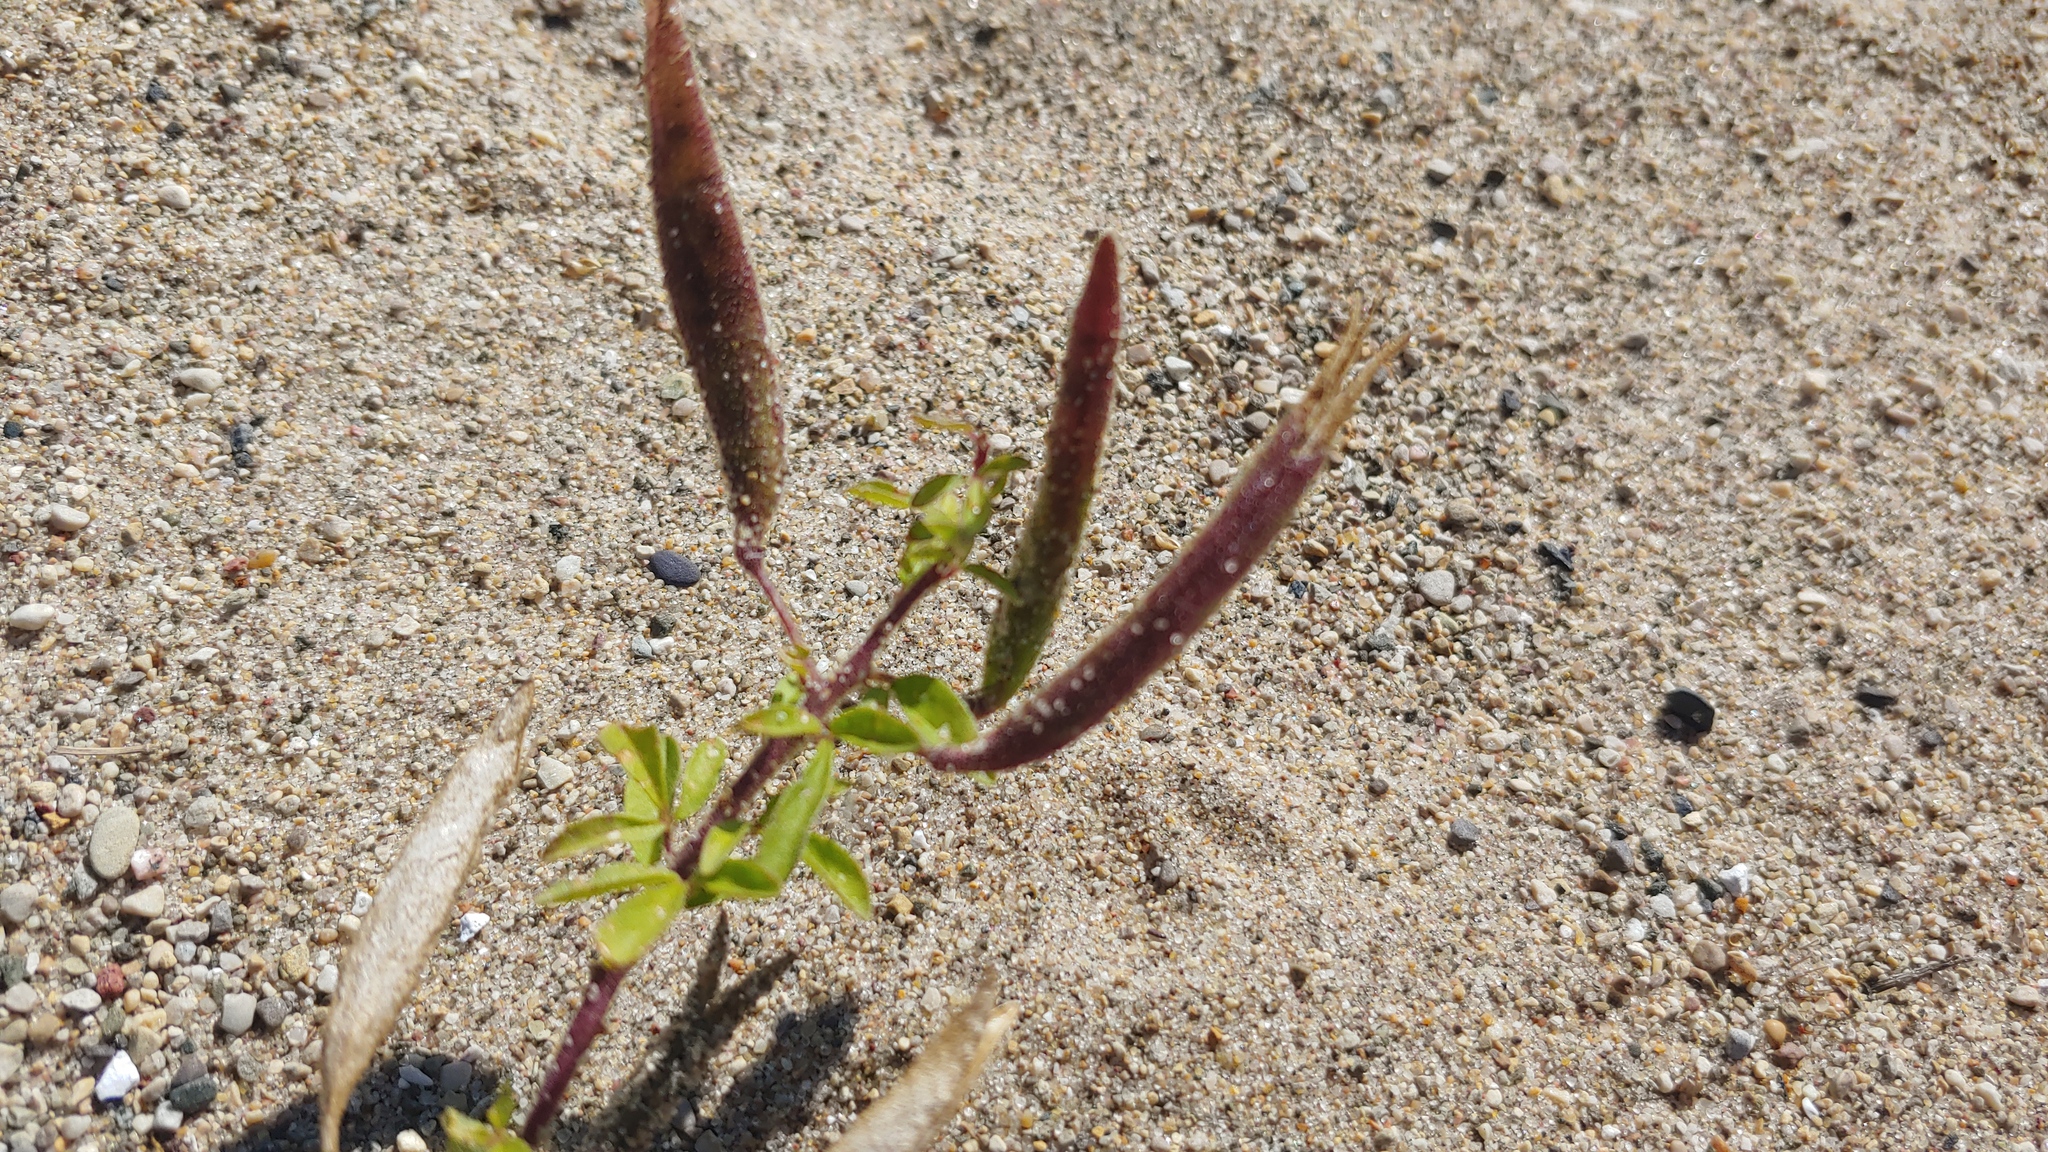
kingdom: Plantae
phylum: Tracheophyta
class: Magnoliopsida
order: Brassicales
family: Cleomaceae
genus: Polanisia
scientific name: Polanisia dodecandra
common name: Clammyweed
